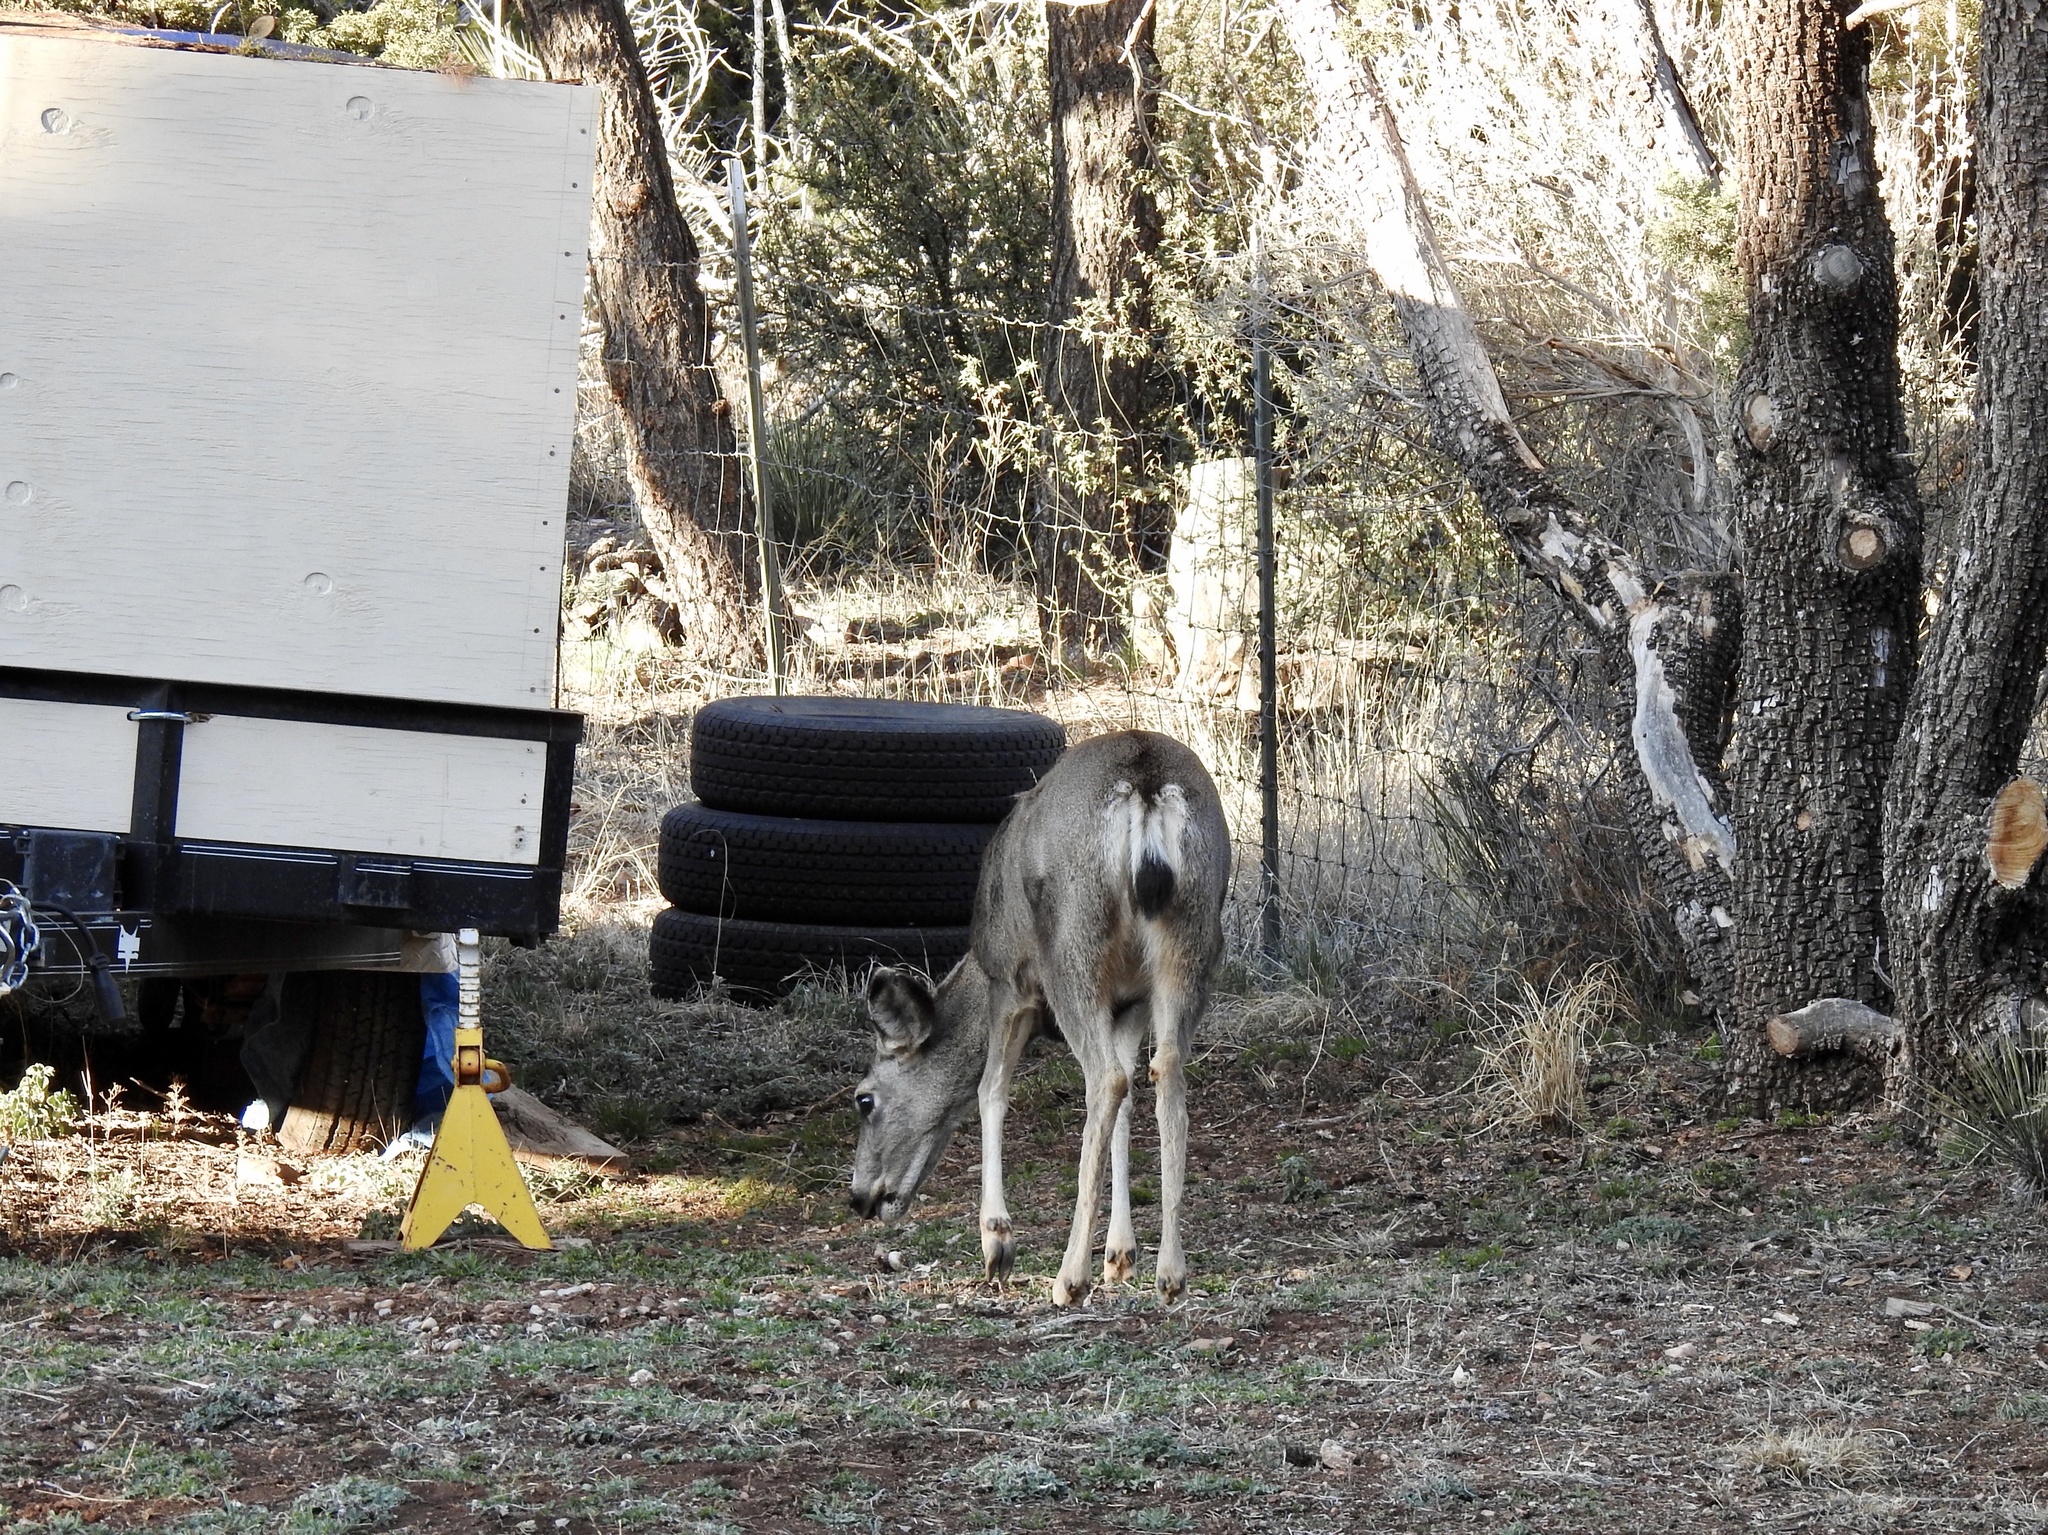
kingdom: Animalia
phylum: Chordata
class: Mammalia
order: Artiodactyla
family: Cervidae
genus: Odocoileus
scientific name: Odocoileus hemionus
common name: Mule deer
